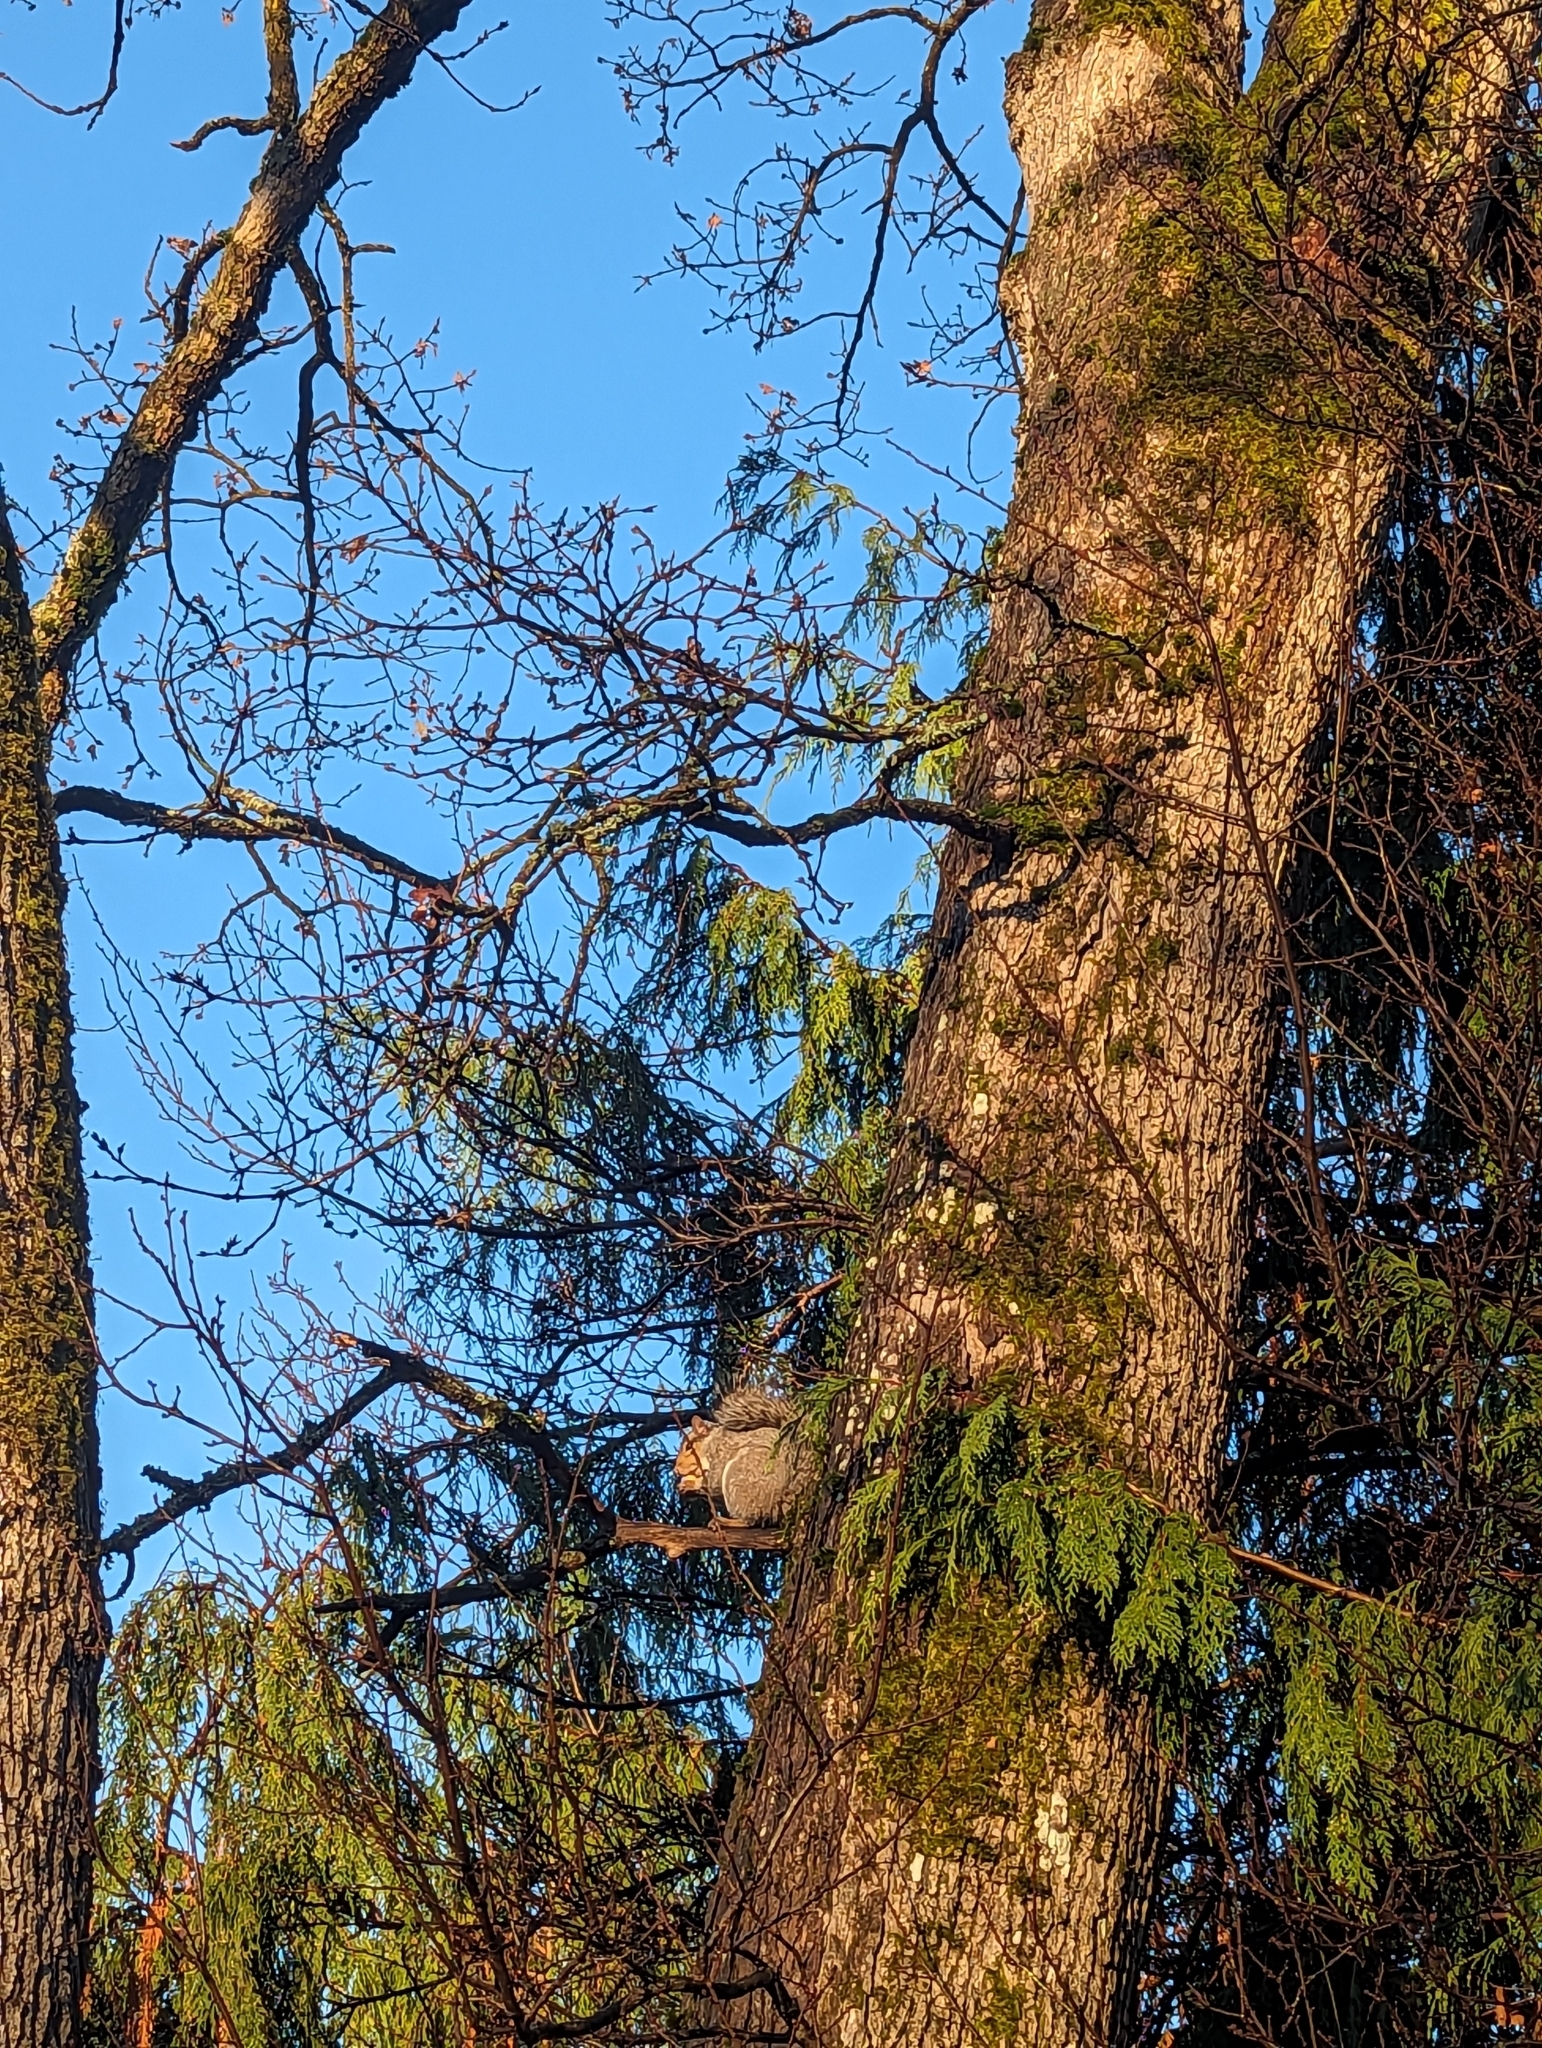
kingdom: Animalia
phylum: Chordata
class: Mammalia
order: Rodentia
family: Sciuridae
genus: Sciurus
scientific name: Sciurus carolinensis
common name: Eastern gray squirrel
